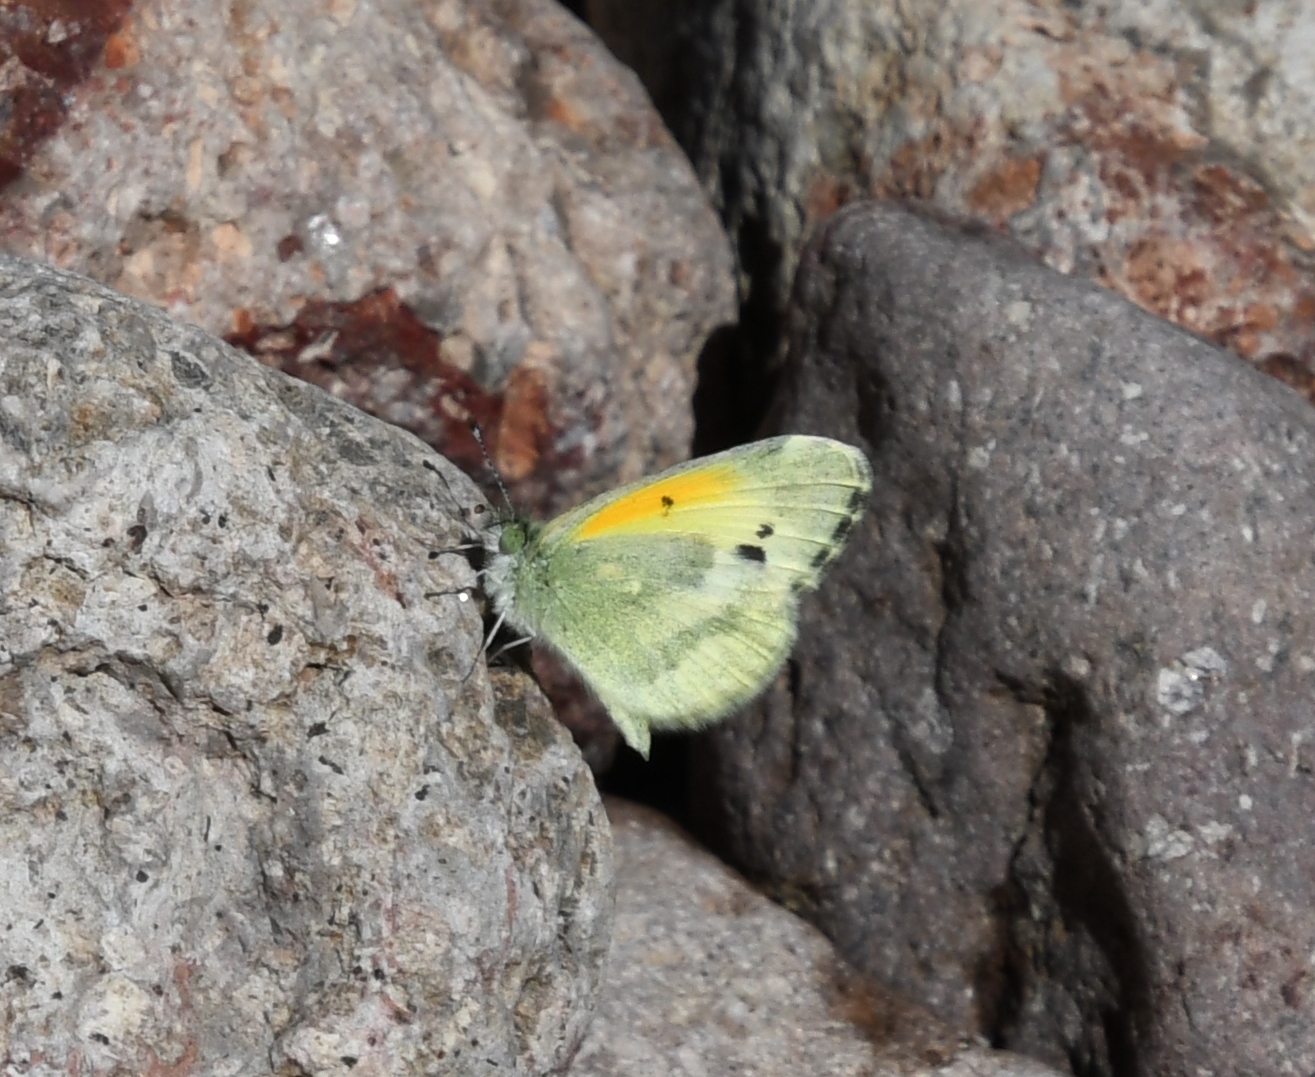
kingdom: Animalia
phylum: Arthropoda
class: Insecta
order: Lepidoptera
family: Pieridae
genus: Nathalis
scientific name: Nathalis iole
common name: Dainty sulphur
